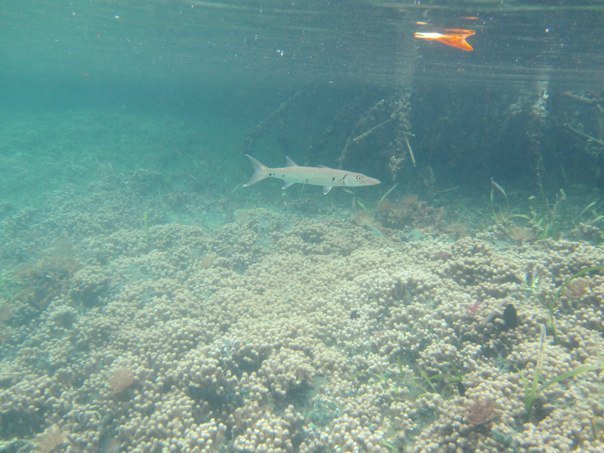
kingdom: Animalia
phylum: Chordata
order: Perciformes
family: Sphyraenidae
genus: Sphyraena
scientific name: Sphyraena barracuda
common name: Great barracuda
